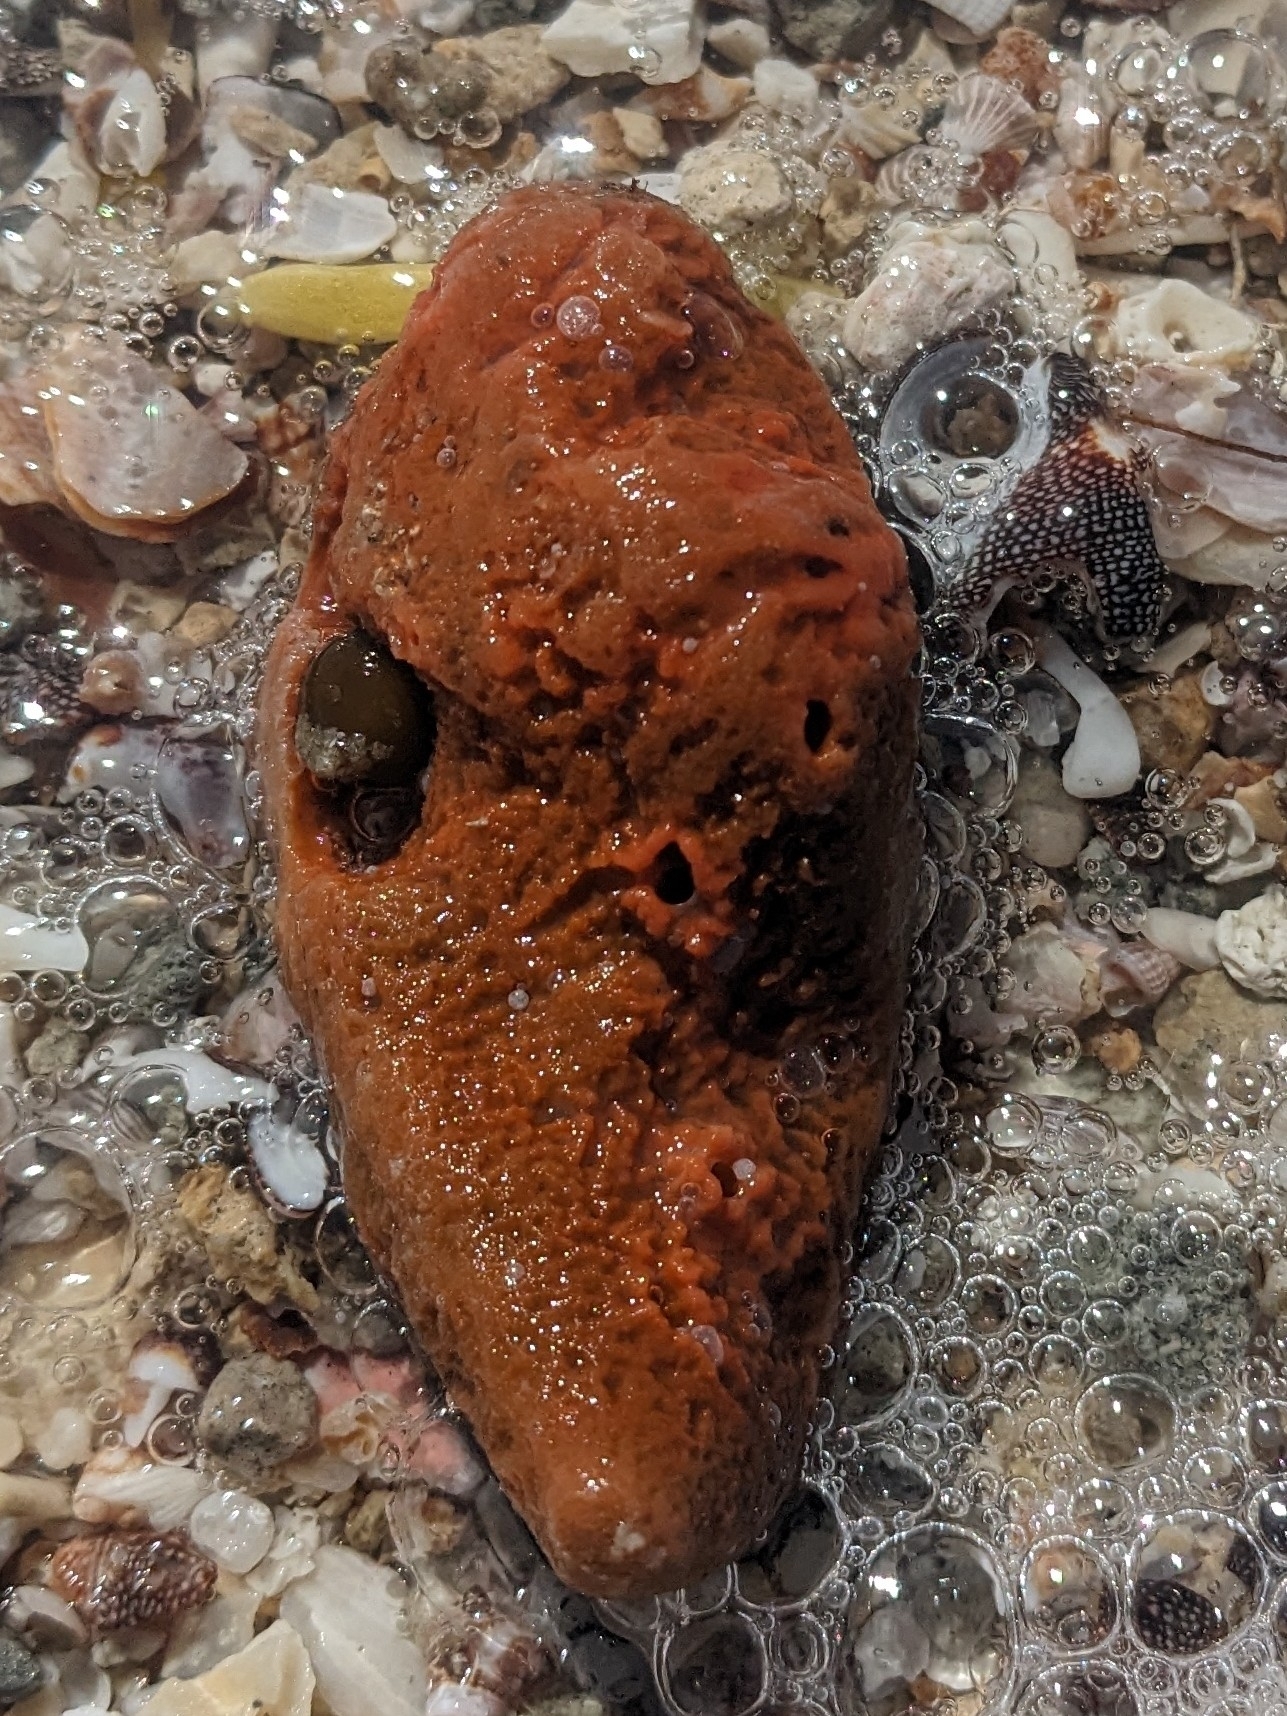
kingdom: Animalia
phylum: Porifera
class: Demospongiae
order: Poecilosclerida
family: Tedaniidae
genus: Tedania
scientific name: Tedania tropicalis
